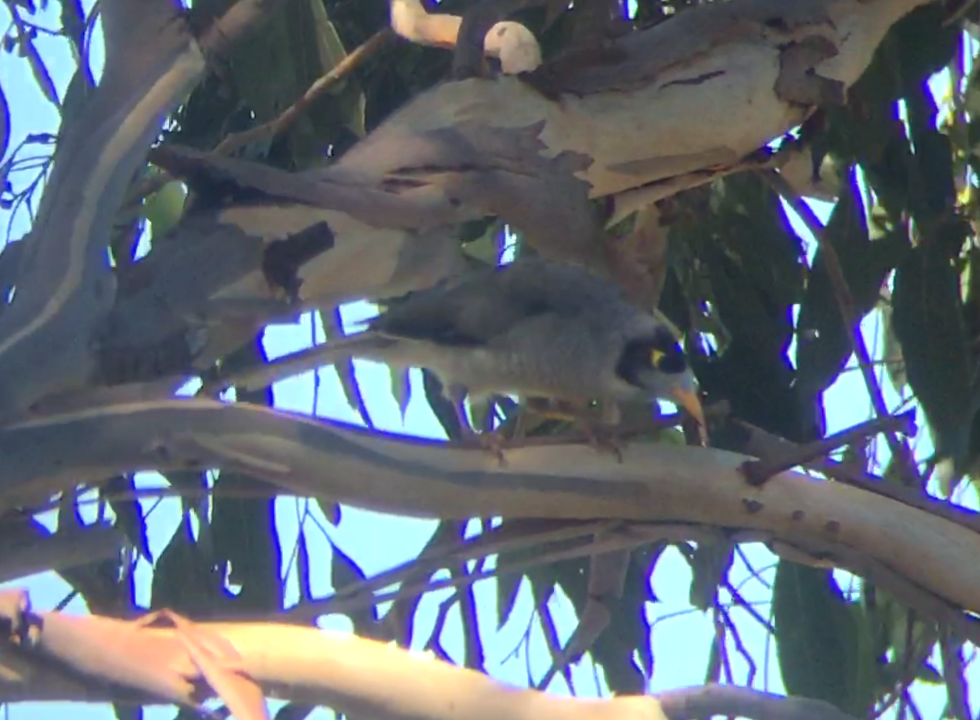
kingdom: Animalia
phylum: Chordata
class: Aves
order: Passeriformes
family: Meliphagidae
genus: Manorina
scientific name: Manorina melanocephala
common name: Noisy miner
